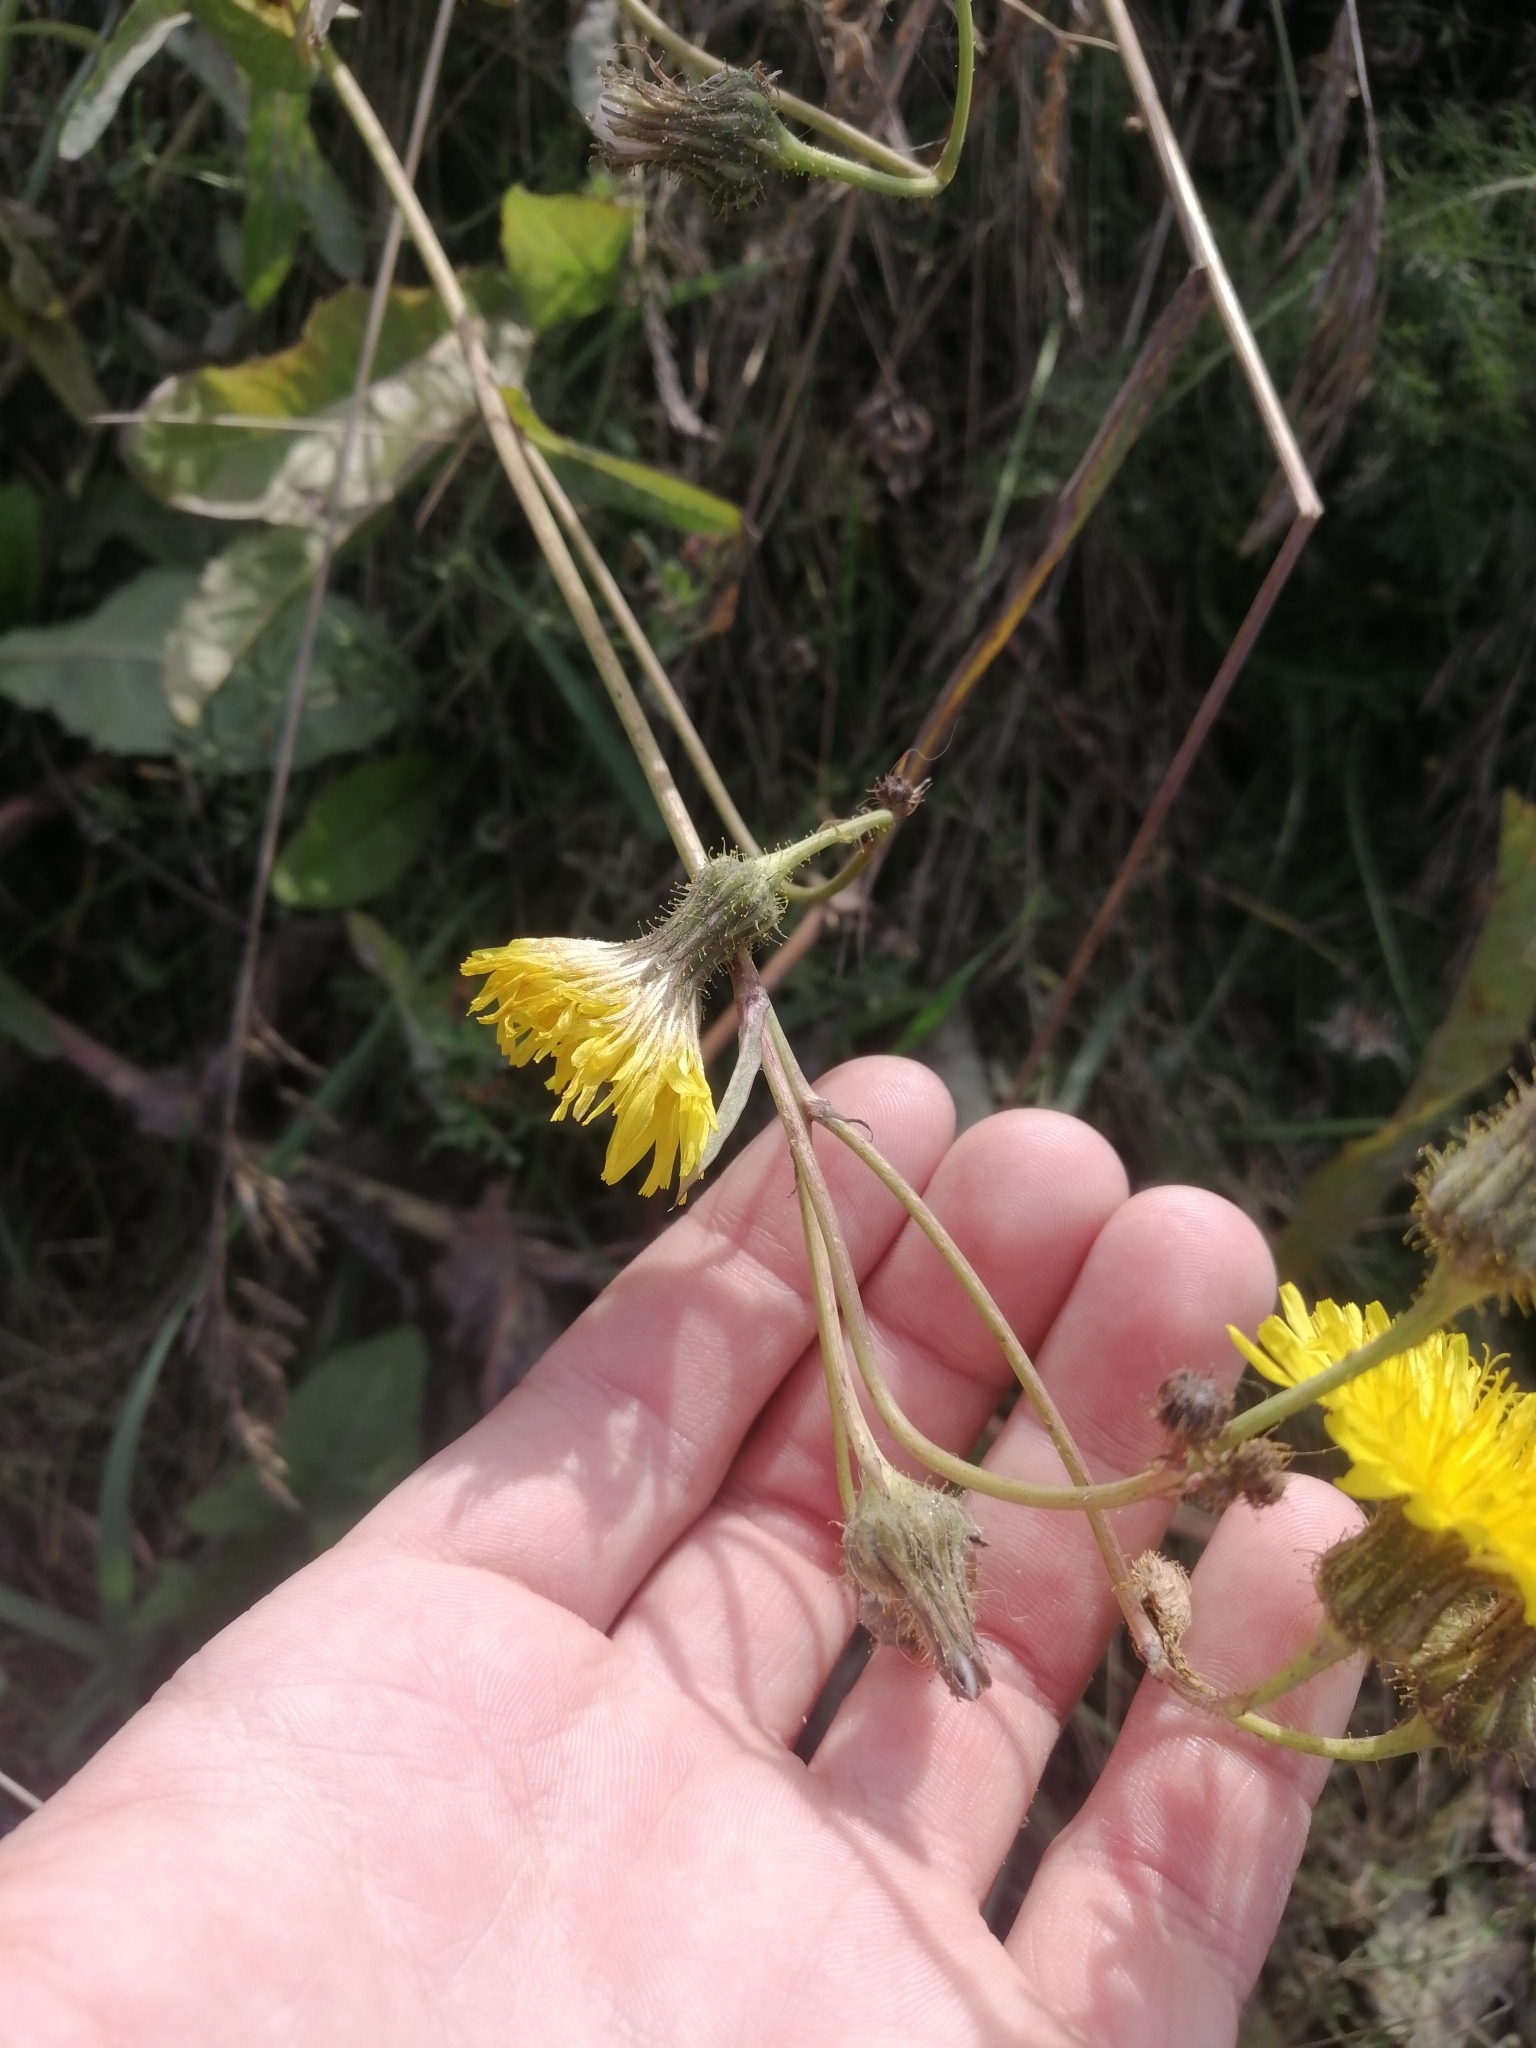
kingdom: Plantae
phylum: Tracheophyta
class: Magnoliopsida
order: Asterales
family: Asteraceae
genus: Sonchus
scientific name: Sonchus arvensis
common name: Perennial sow-thistle
